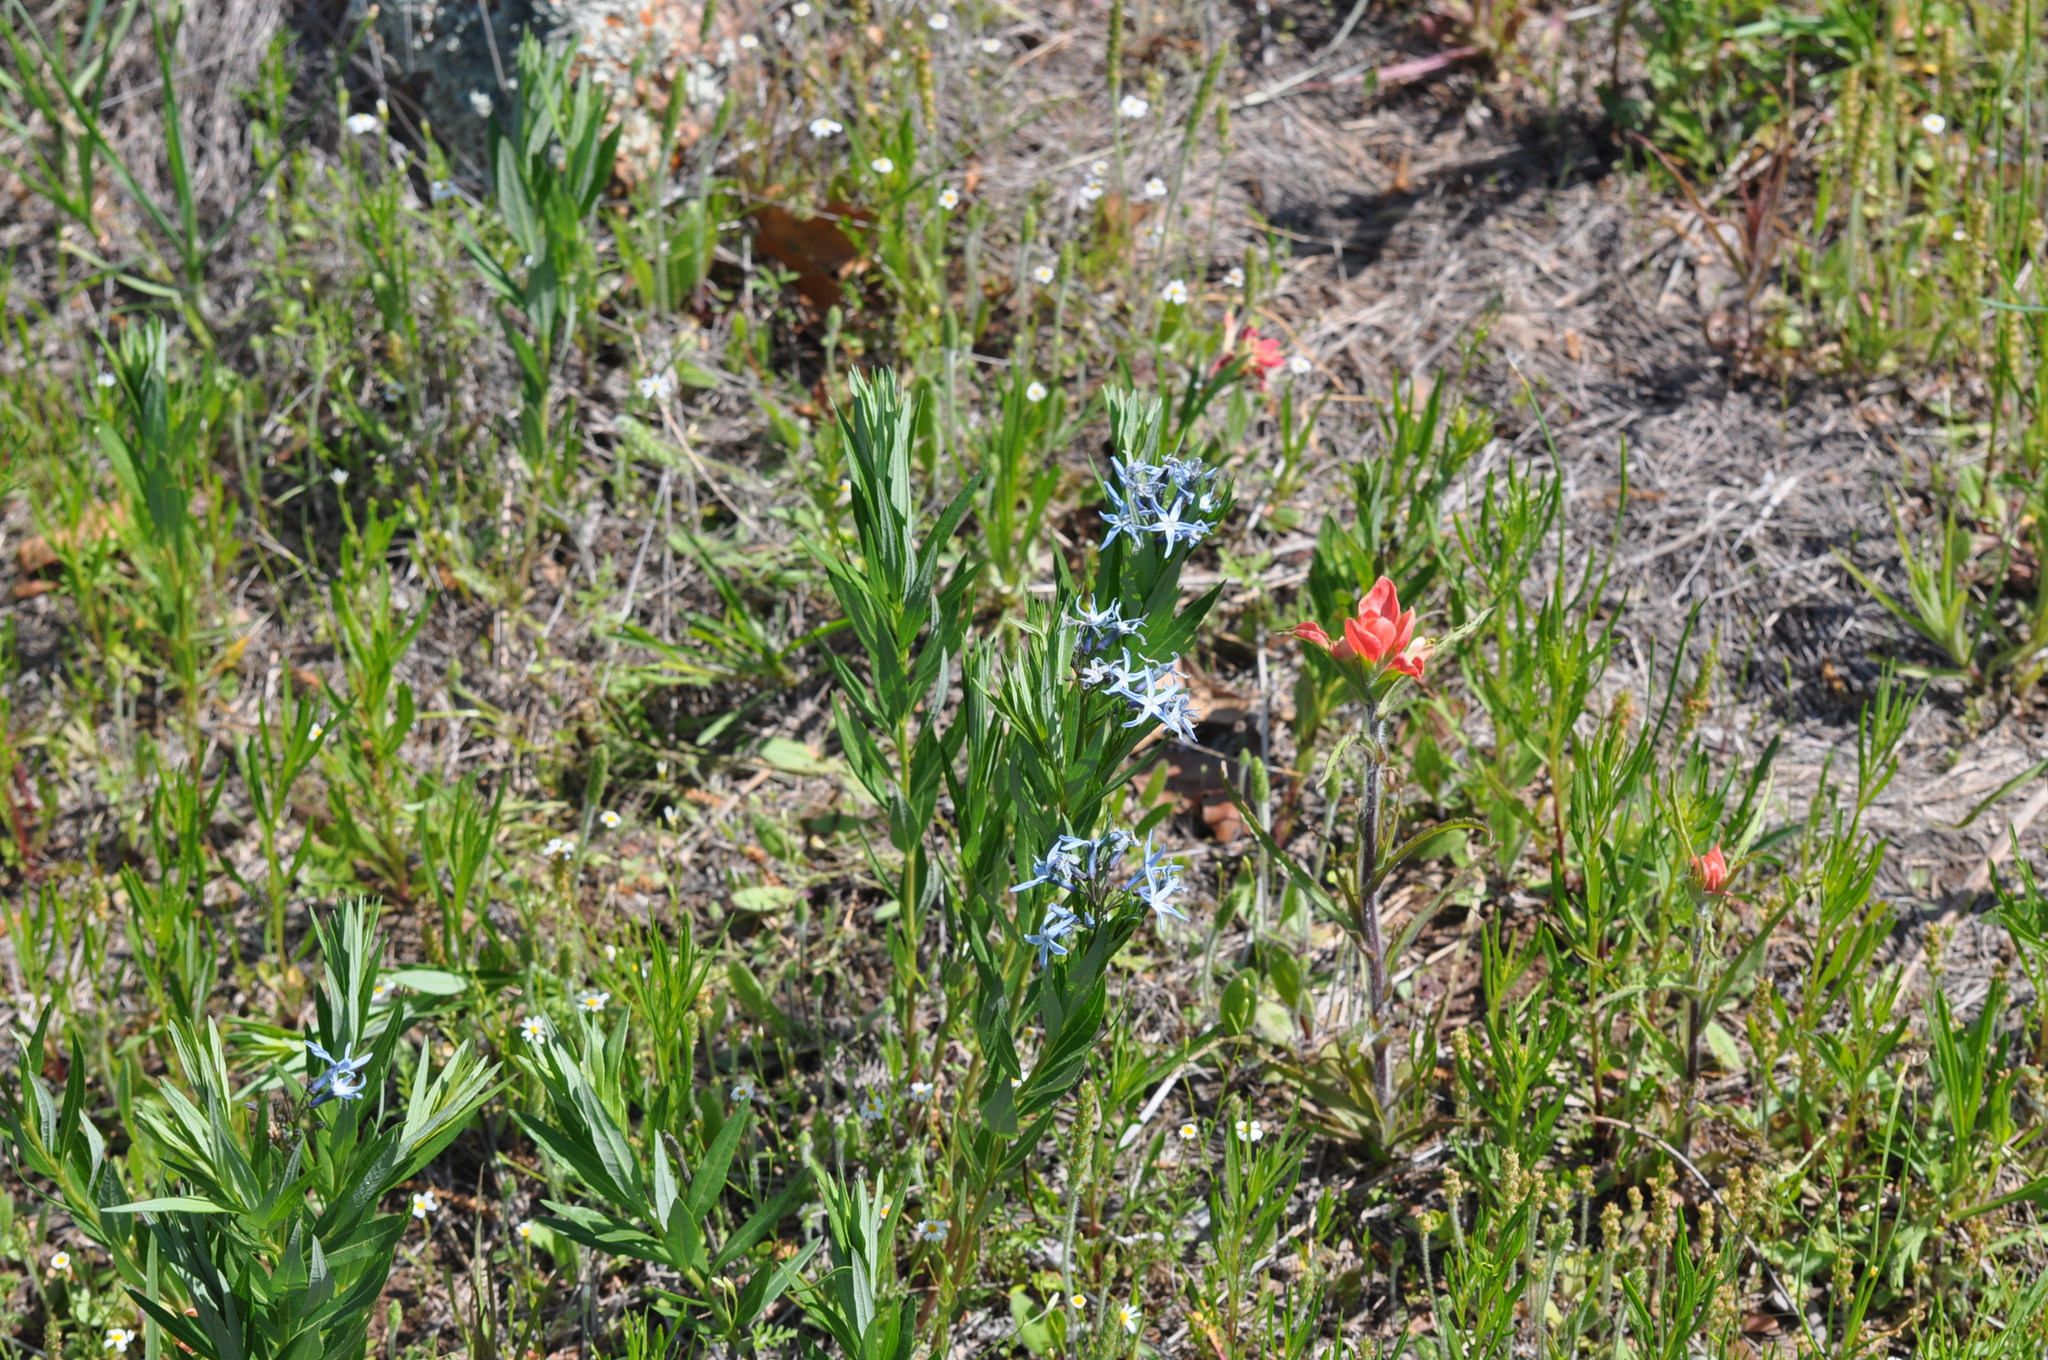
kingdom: Plantae
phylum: Tracheophyta
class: Magnoliopsida
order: Gentianales
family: Apocynaceae
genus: Amsonia
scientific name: Amsonia ciliata
